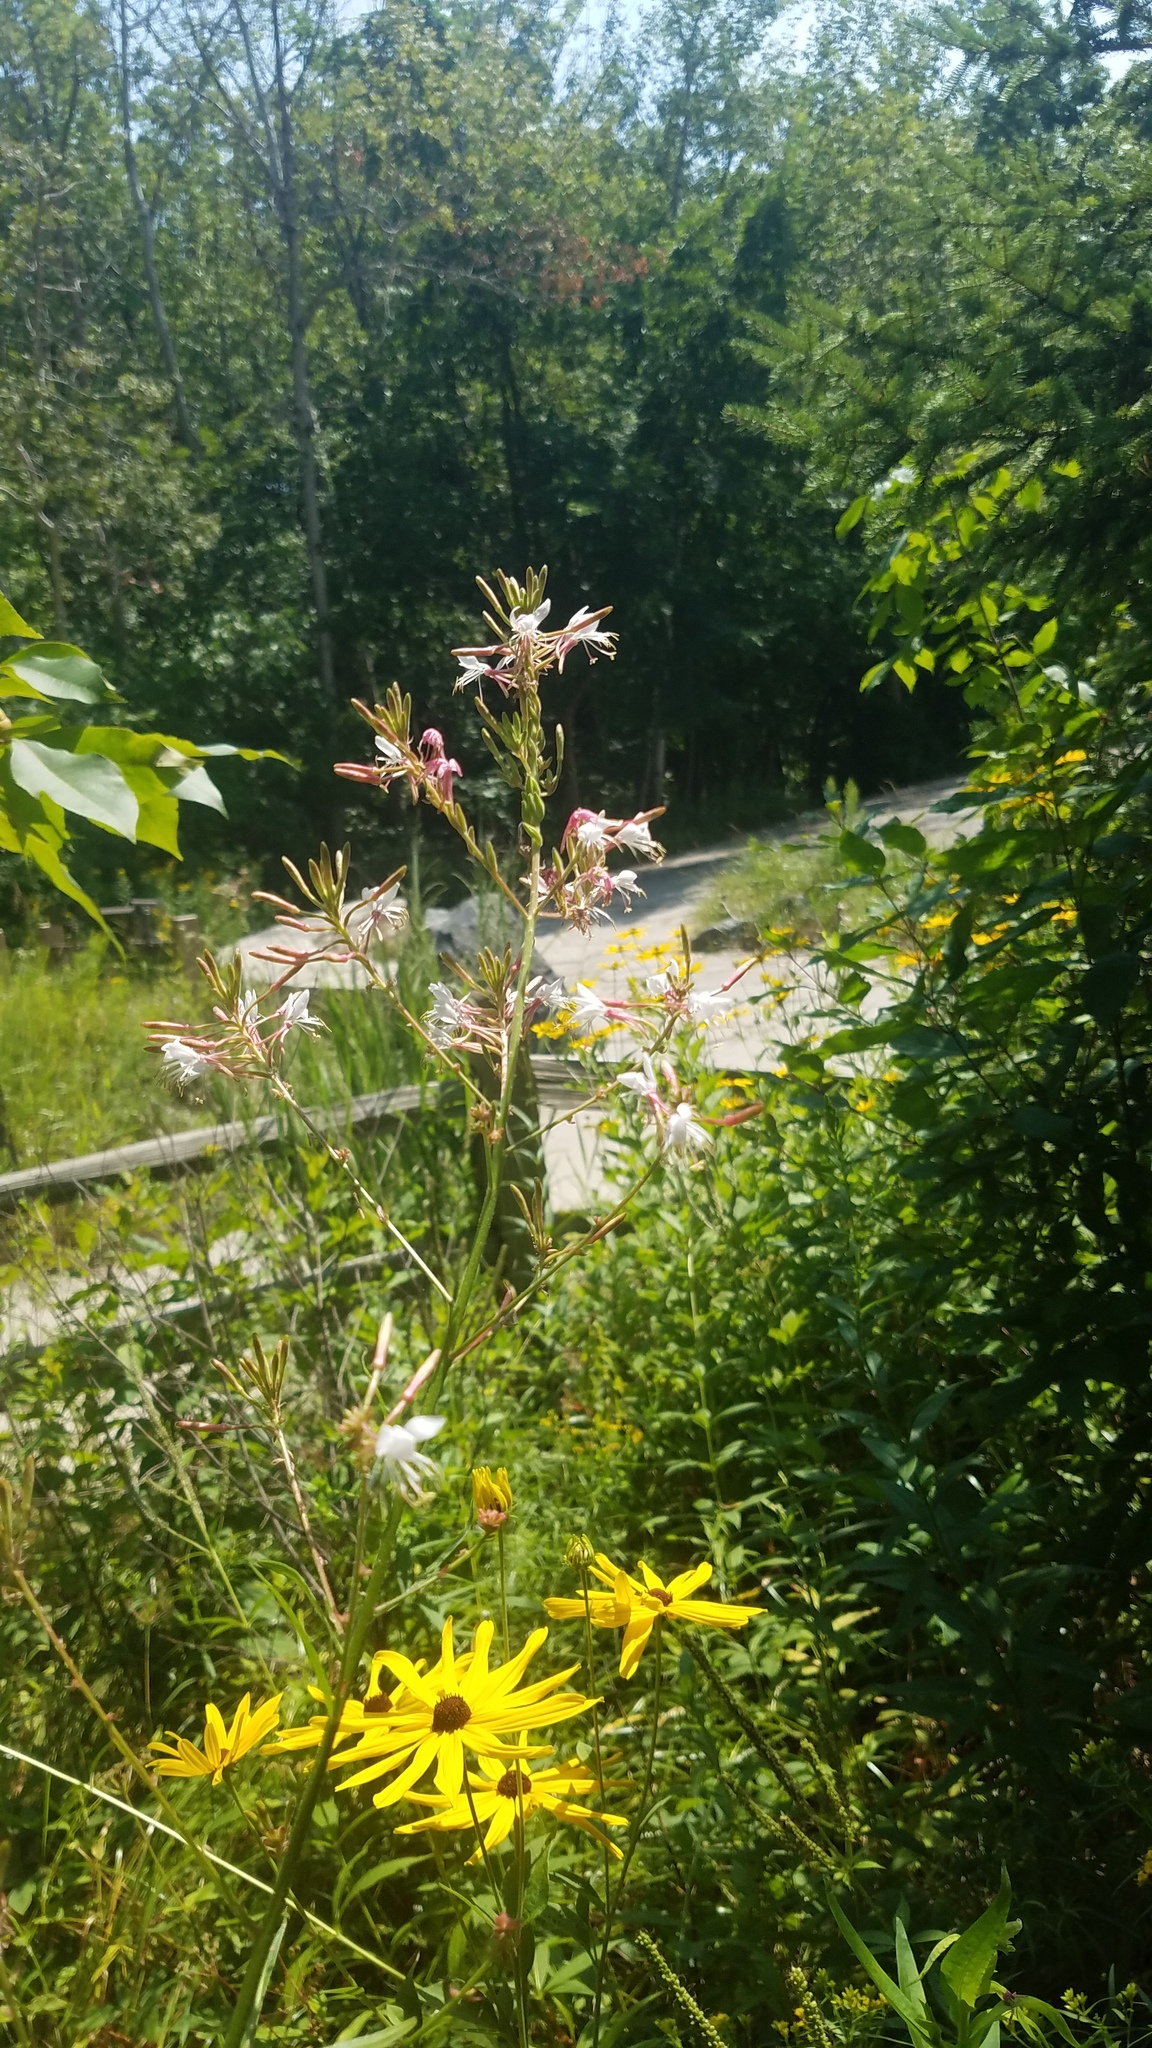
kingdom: Plantae
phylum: Tracheophyta
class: Magnoliopsida
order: Myrtales
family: Onagraceae
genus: Oenothera
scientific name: Oenothera gaura
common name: Biennial beeblossom
